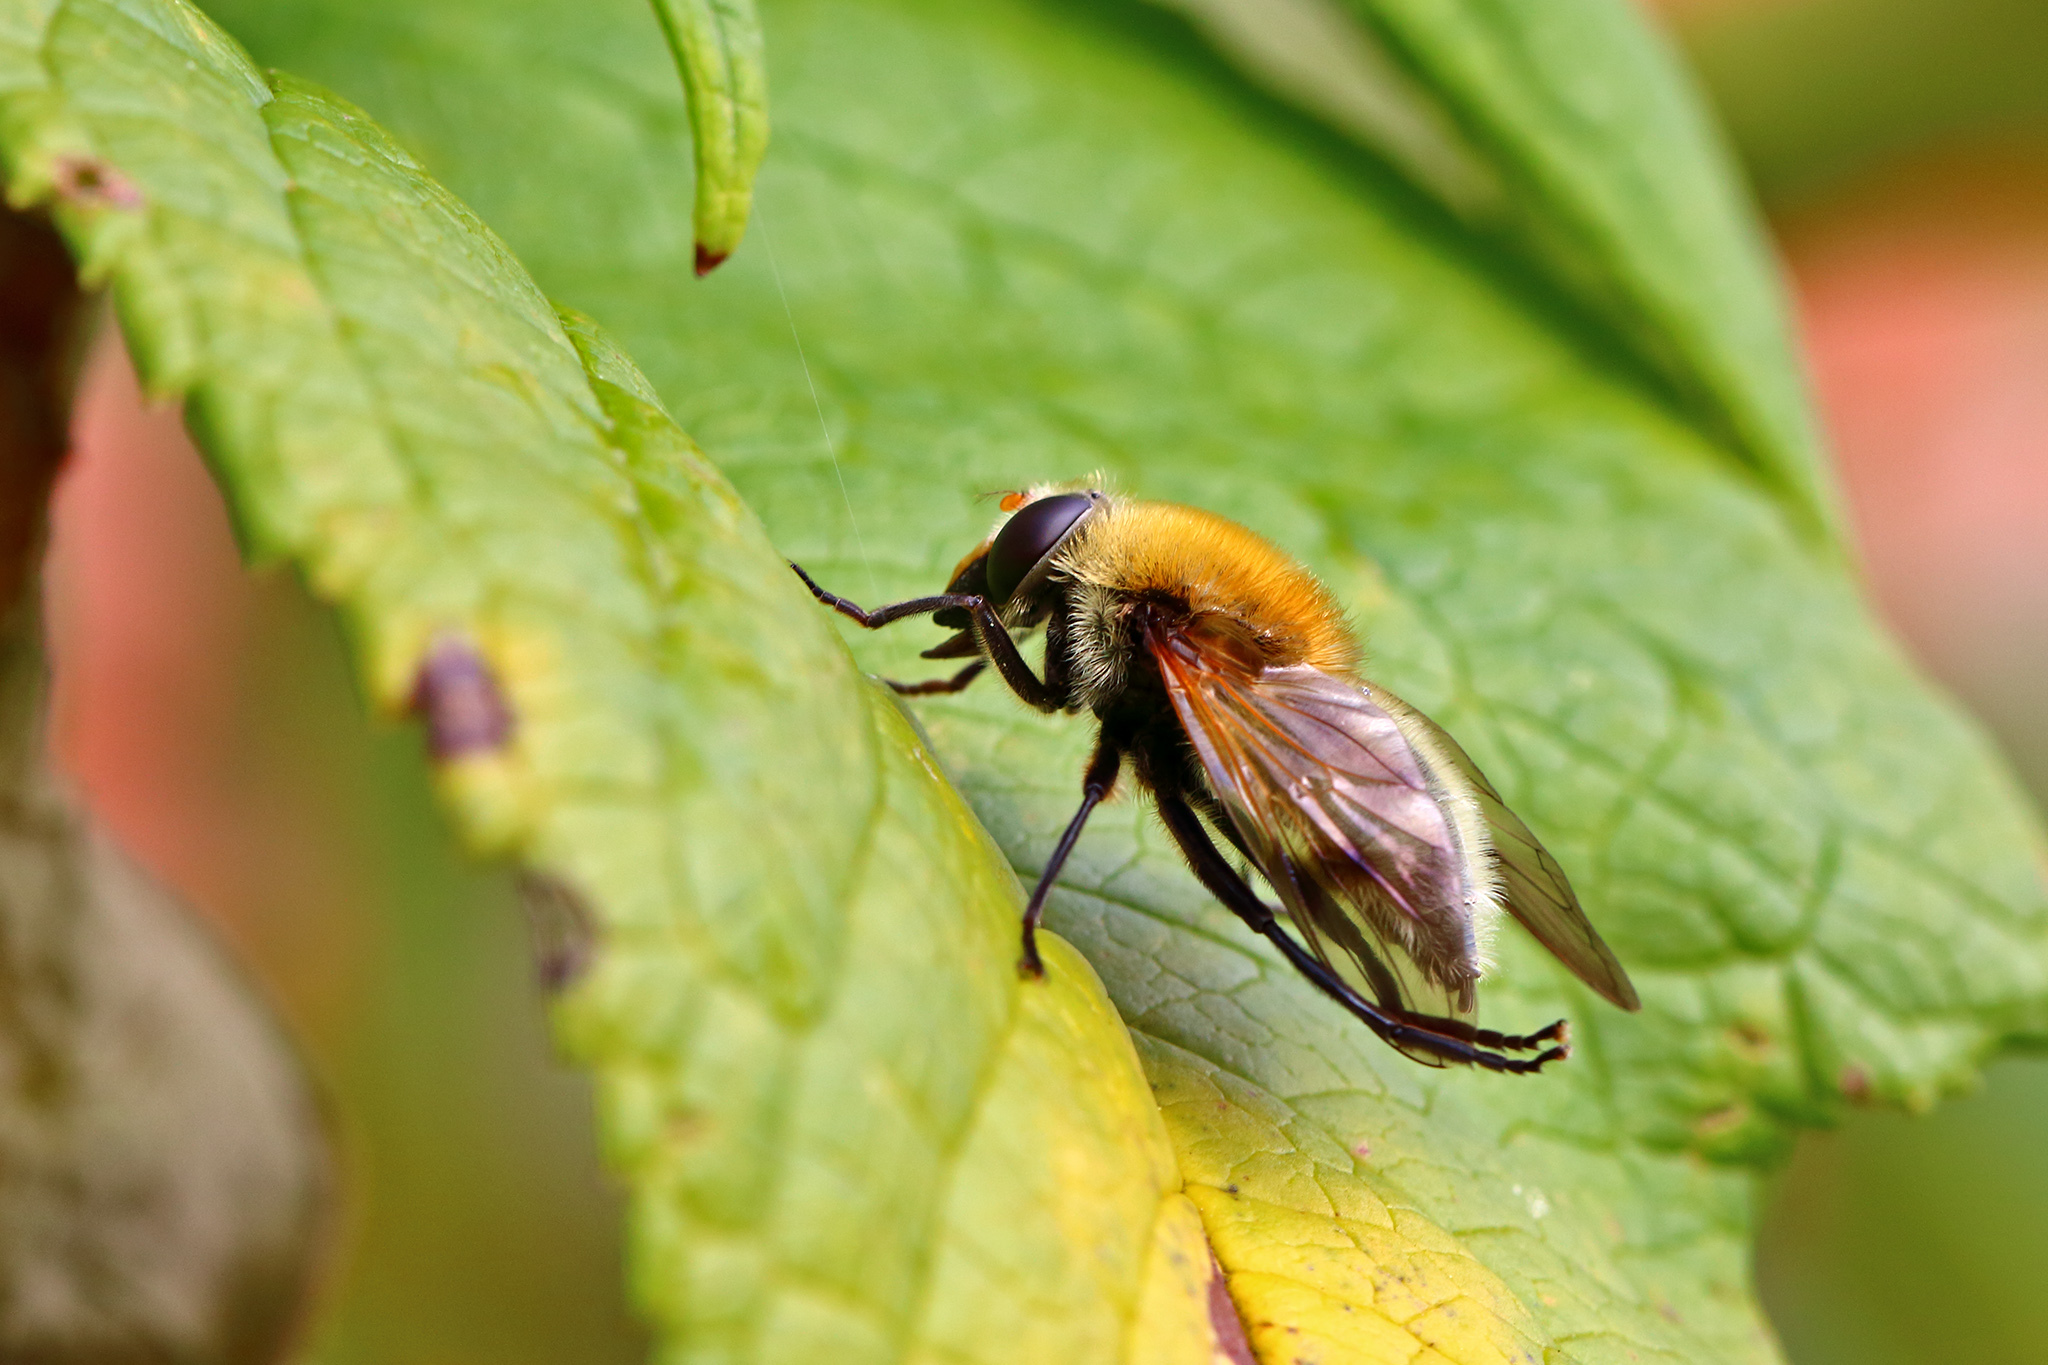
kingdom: Animalia
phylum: Arthropoda
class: Insecta
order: Diptera
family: Syrphidae
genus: Sericomyia
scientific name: Sericomyia superbiens
